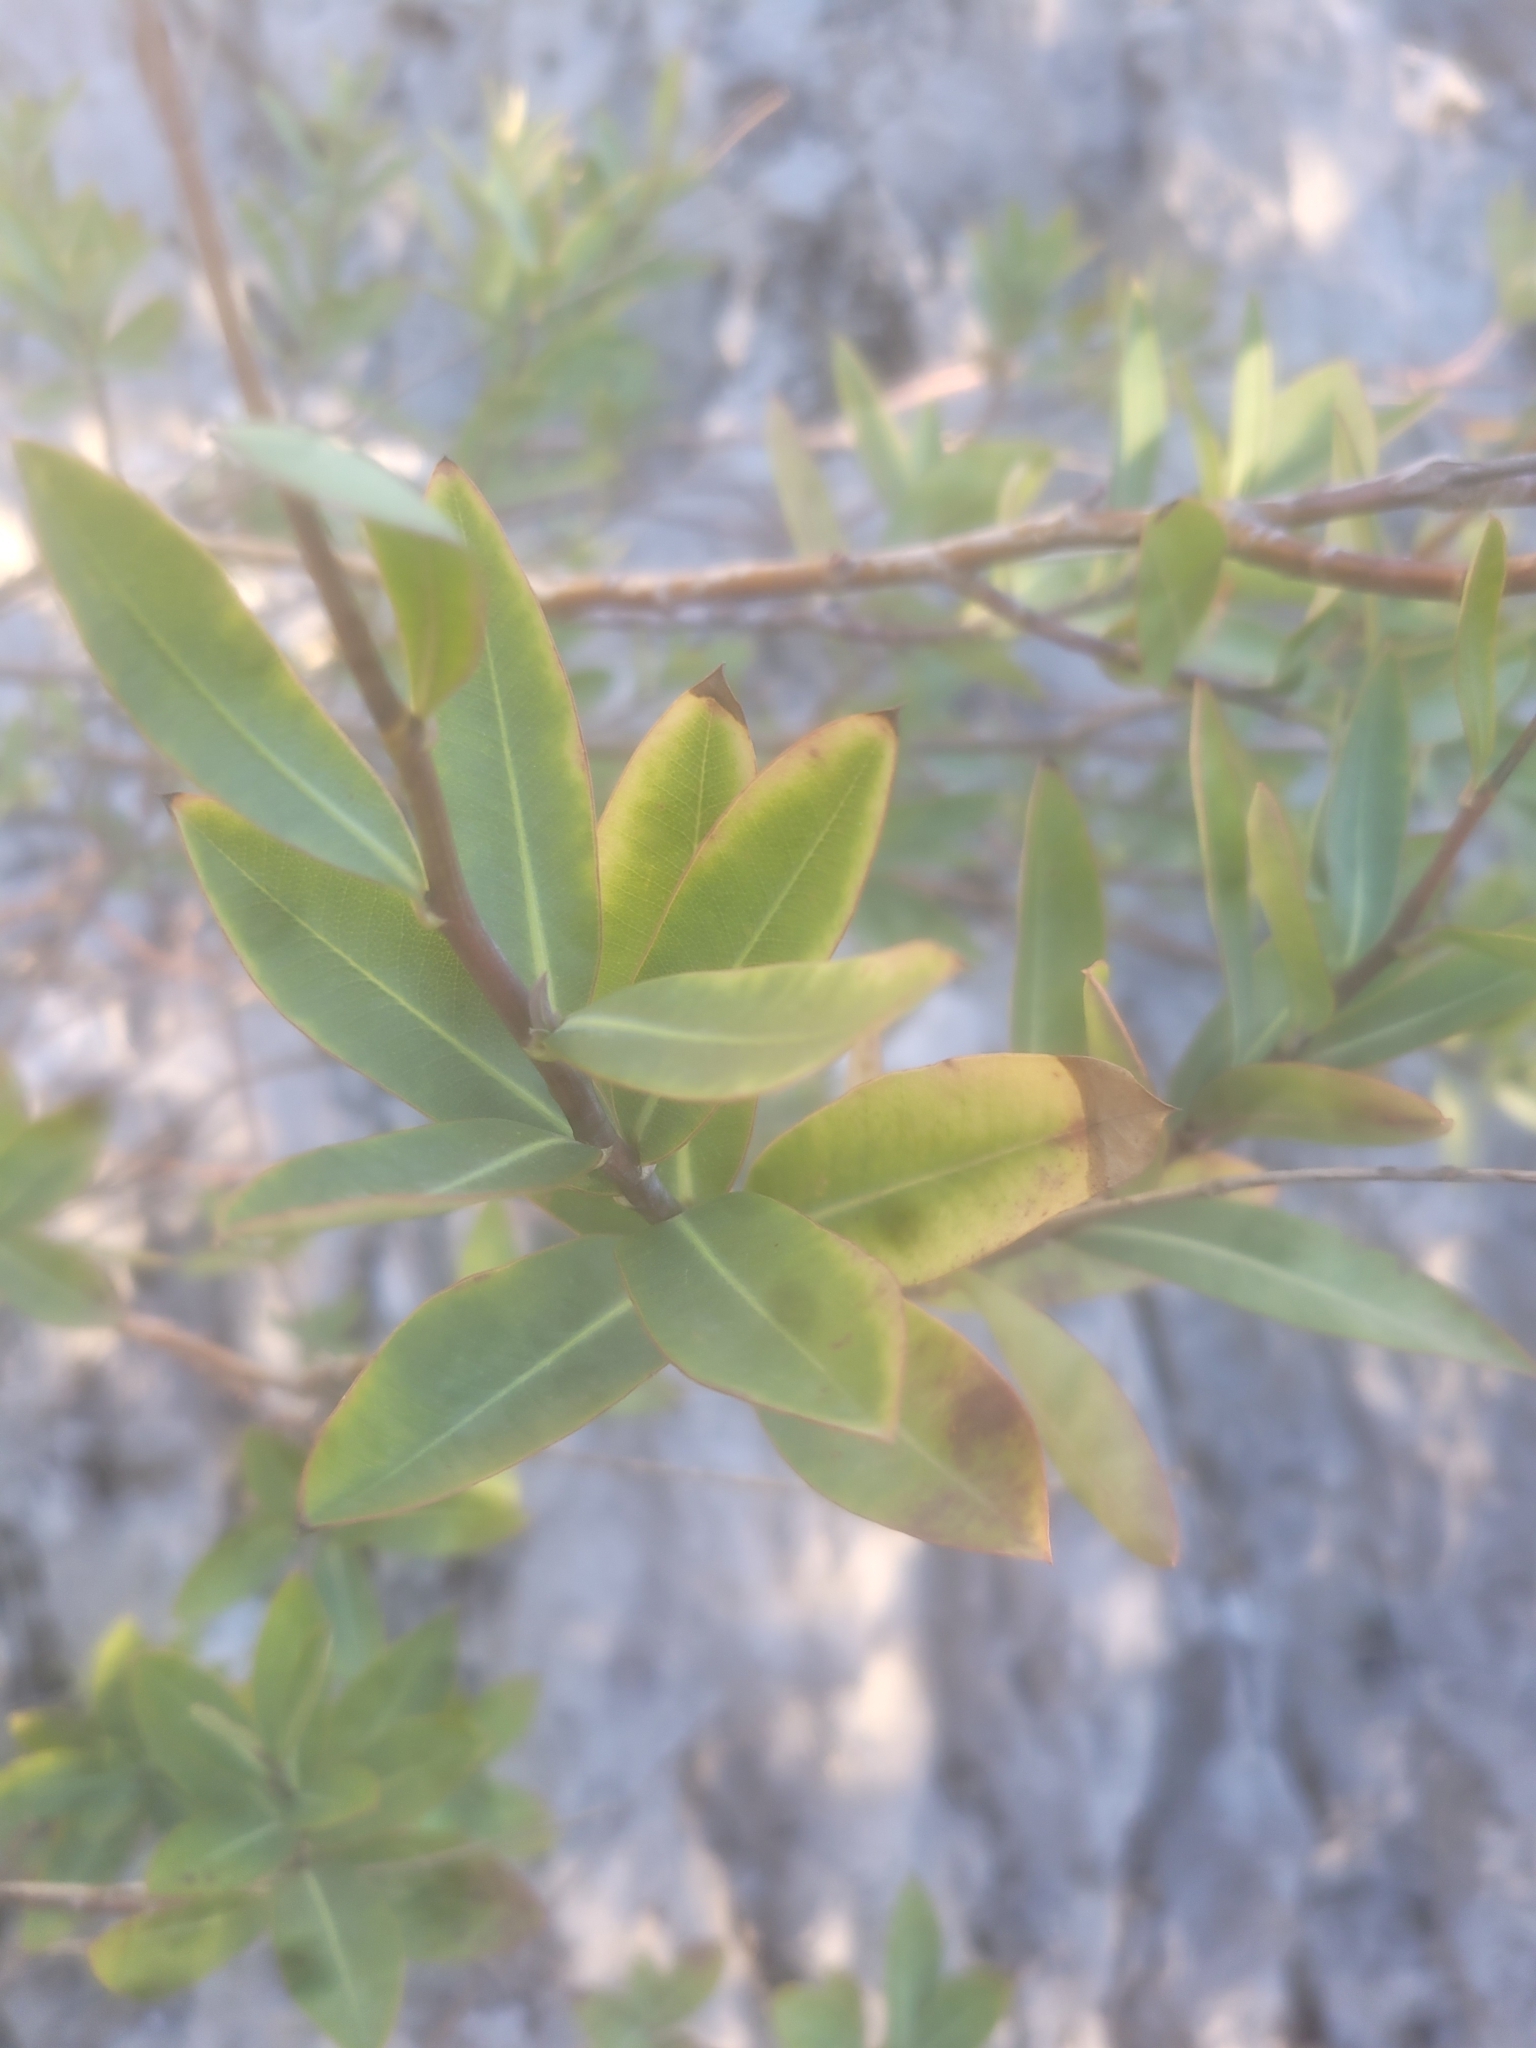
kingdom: Plantae
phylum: Tracheophyta
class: Magnoliopsida
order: Apiales
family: Apiaceae
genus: Bupleurum
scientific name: Bupleurum fruticosum
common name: Shrubby hare's-ear
